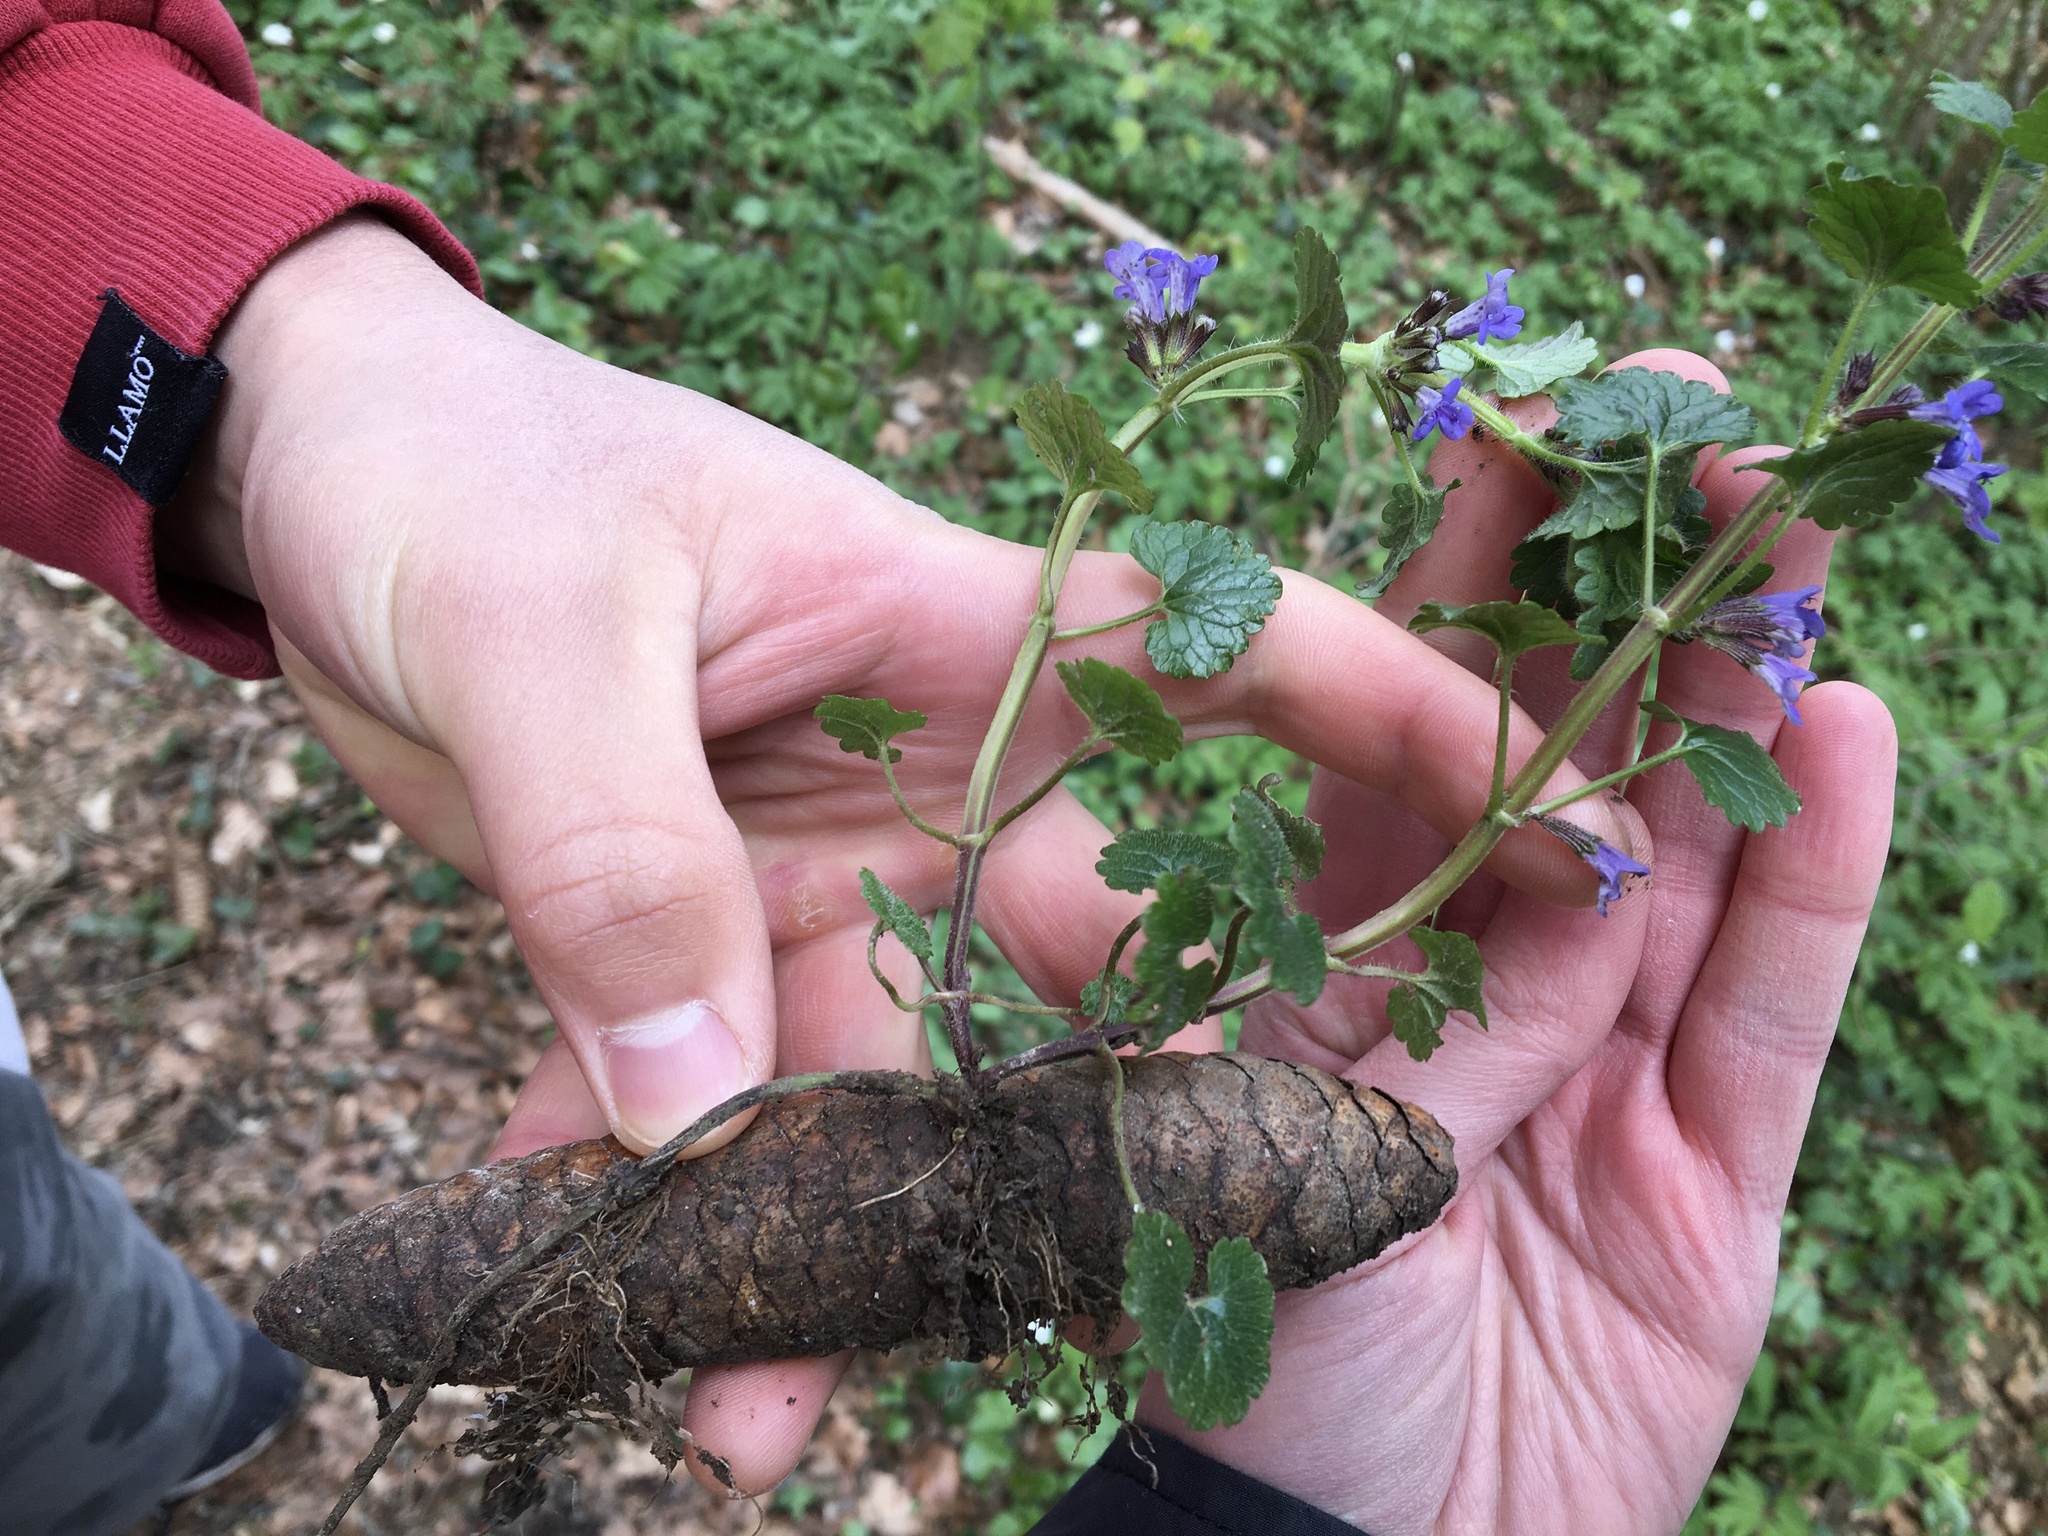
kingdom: Plantae
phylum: Tracheophyta
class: Magnoliopsida
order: Lamiales
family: Lamiaceae
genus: Glechoma
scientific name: Glechoma hederacea
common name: Ground ivy
